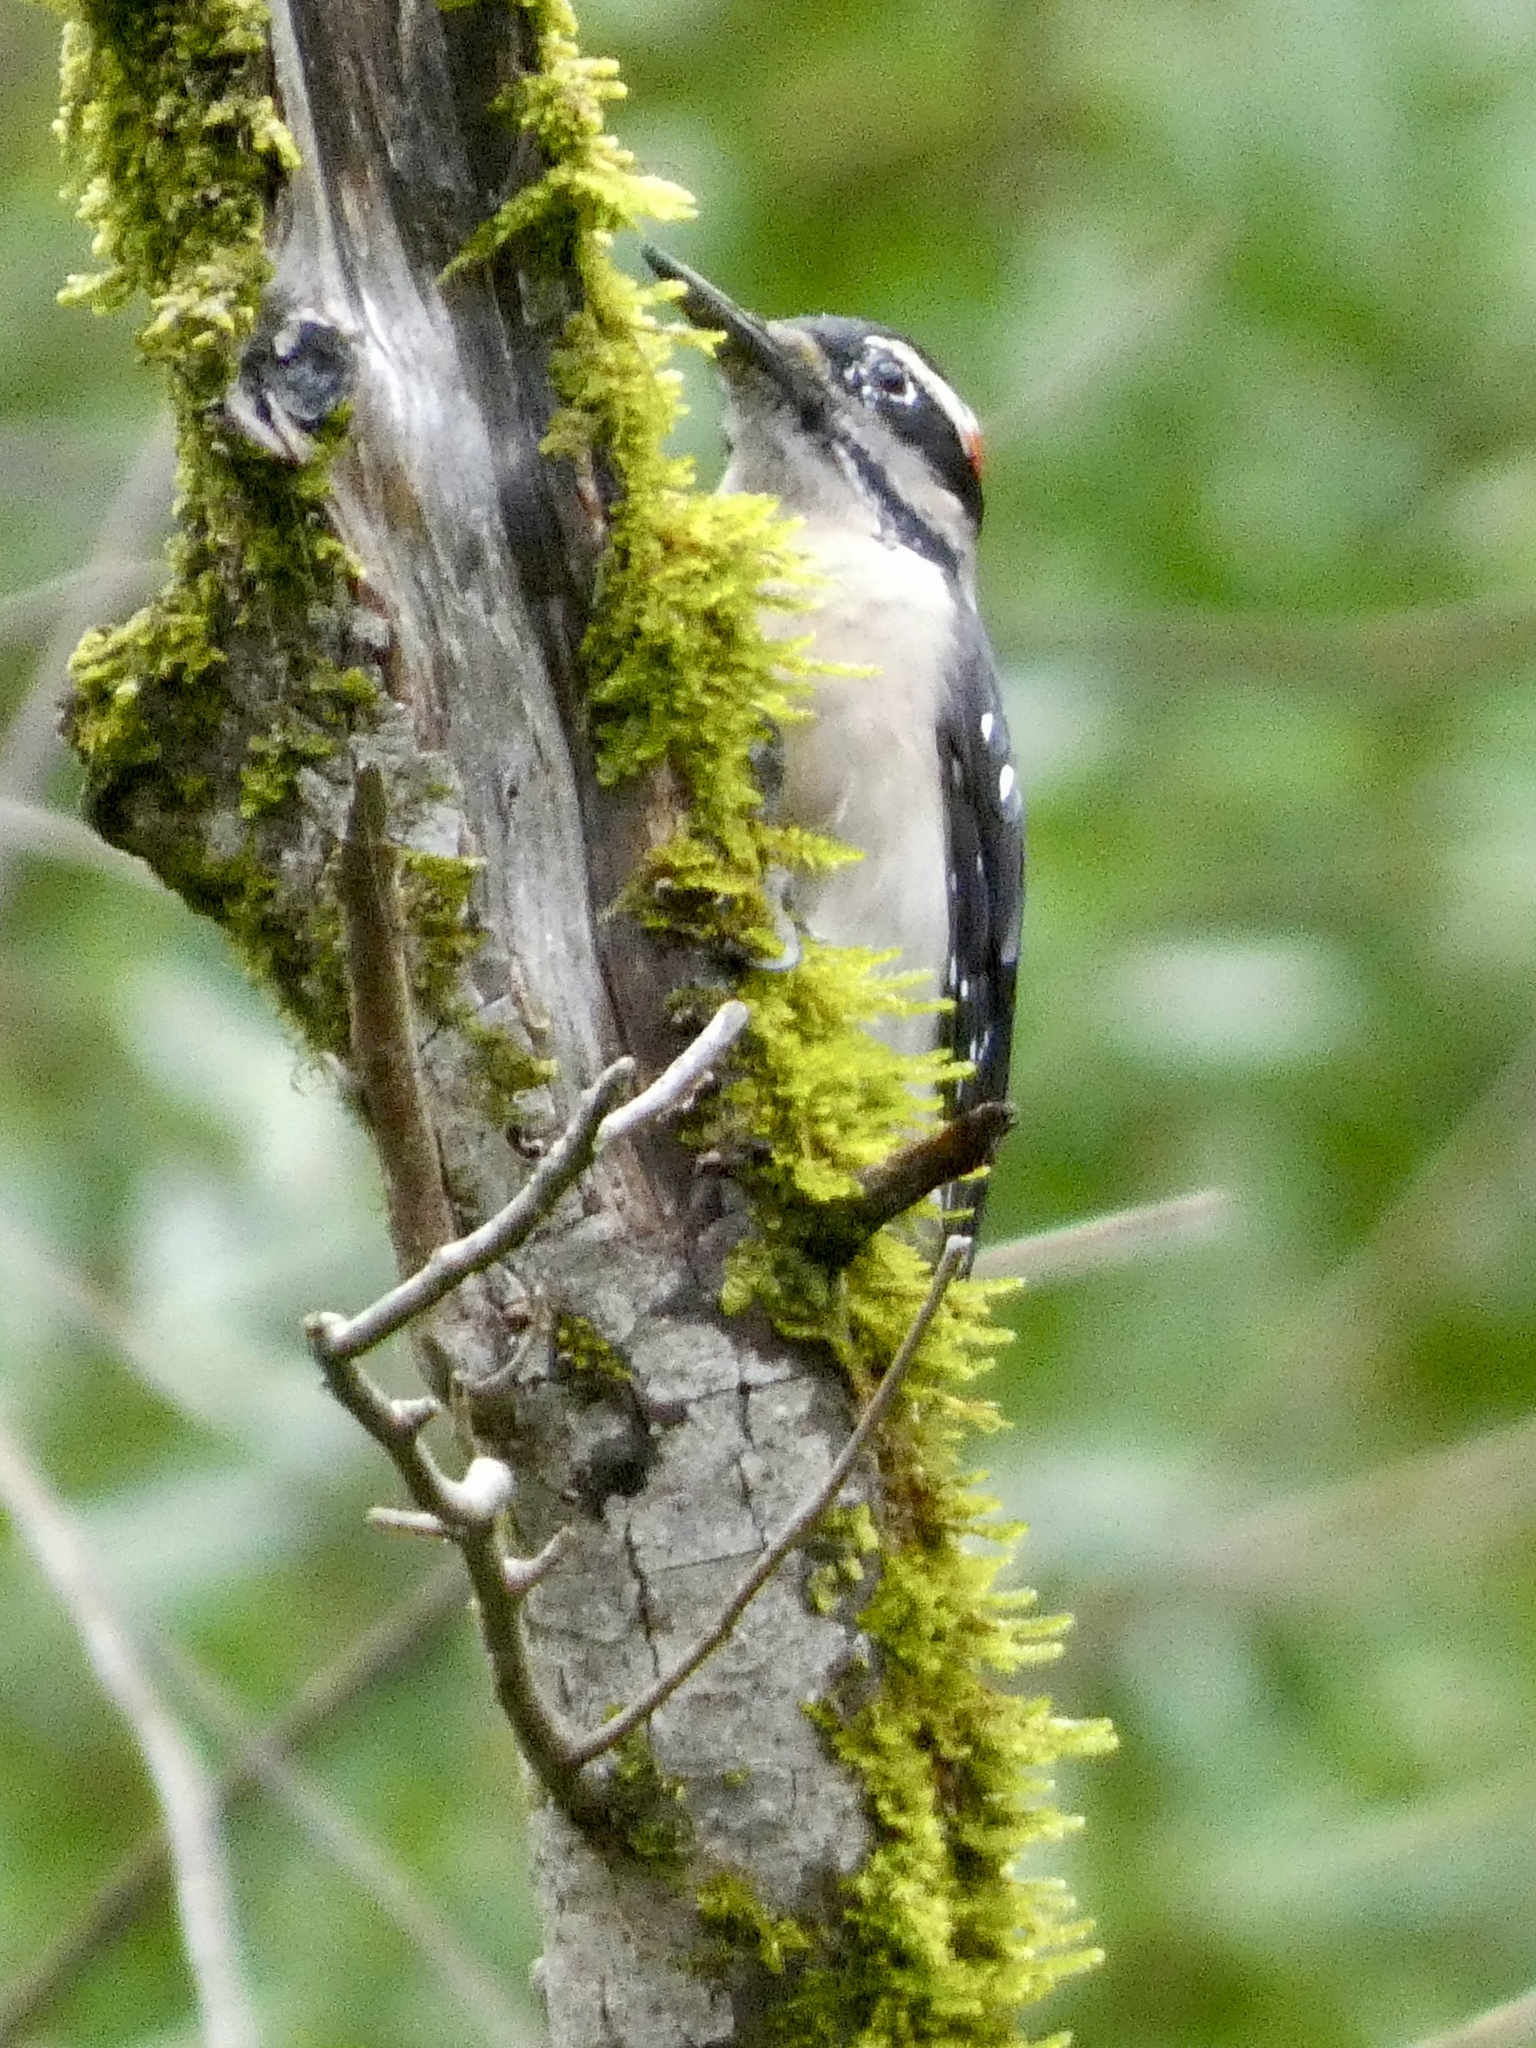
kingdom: Animalia
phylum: Chordata
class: Aves
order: Piciformes
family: Picidae
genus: Leuconotopicus
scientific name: Leuconotopicus villosus
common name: Hairy woodpecker
